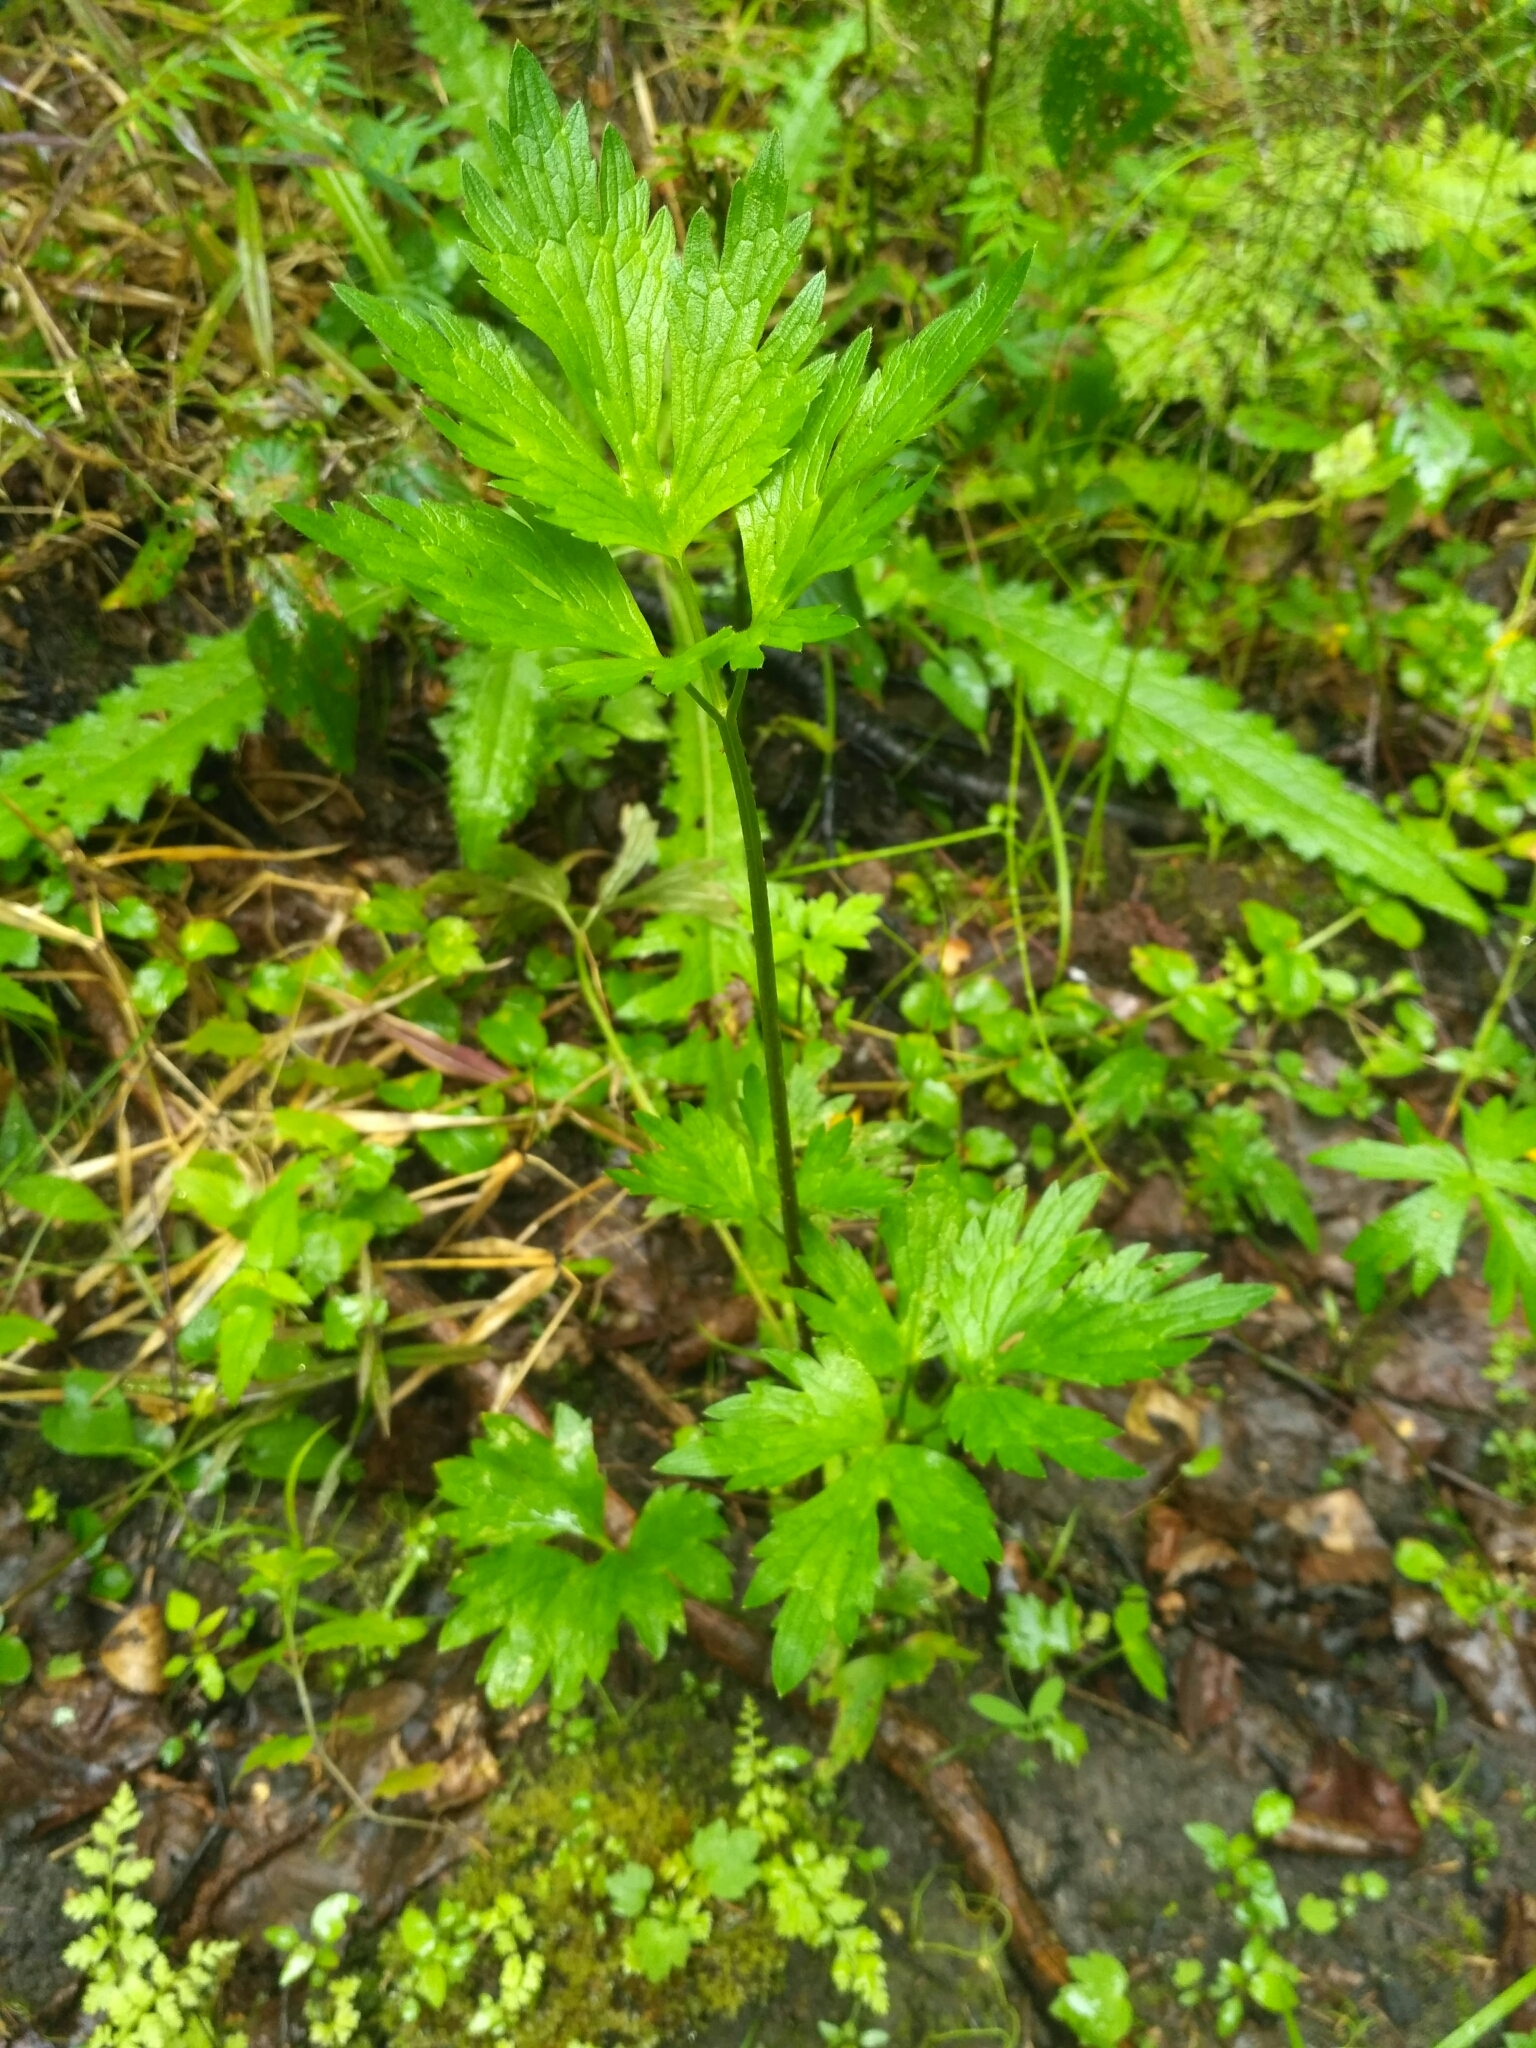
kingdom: Plantae
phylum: Tracheophyta
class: Magnoliopsida
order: Ranunculales
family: Ranunculaceae
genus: Ranunculus
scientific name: Ranunculus repens
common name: Creeping buttercup
